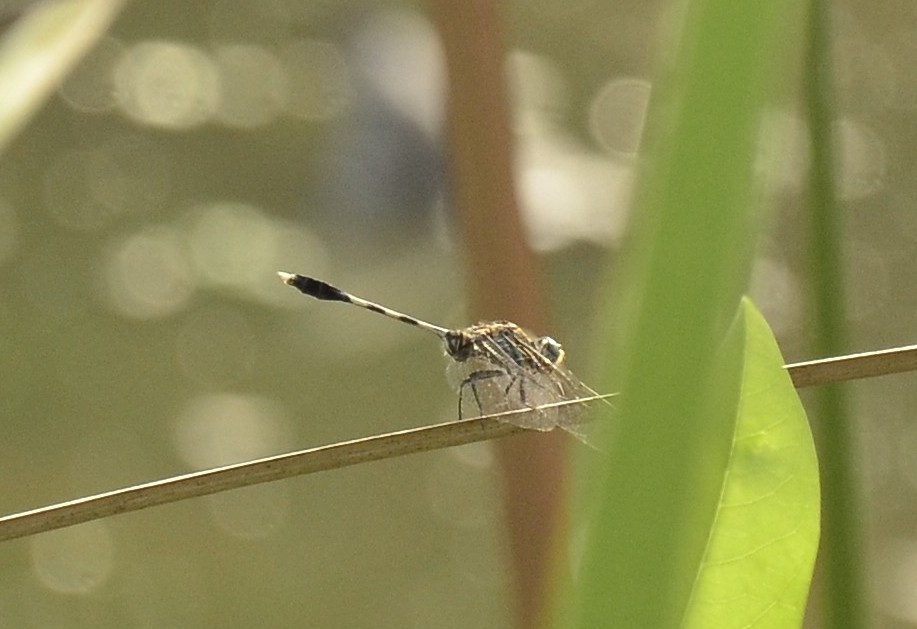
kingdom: Animalia
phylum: Arthropoda
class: Insecta
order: Odonata
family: Libellulidae
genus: Orthetrum
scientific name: Orthetrum sabina
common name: Slender skimmer
